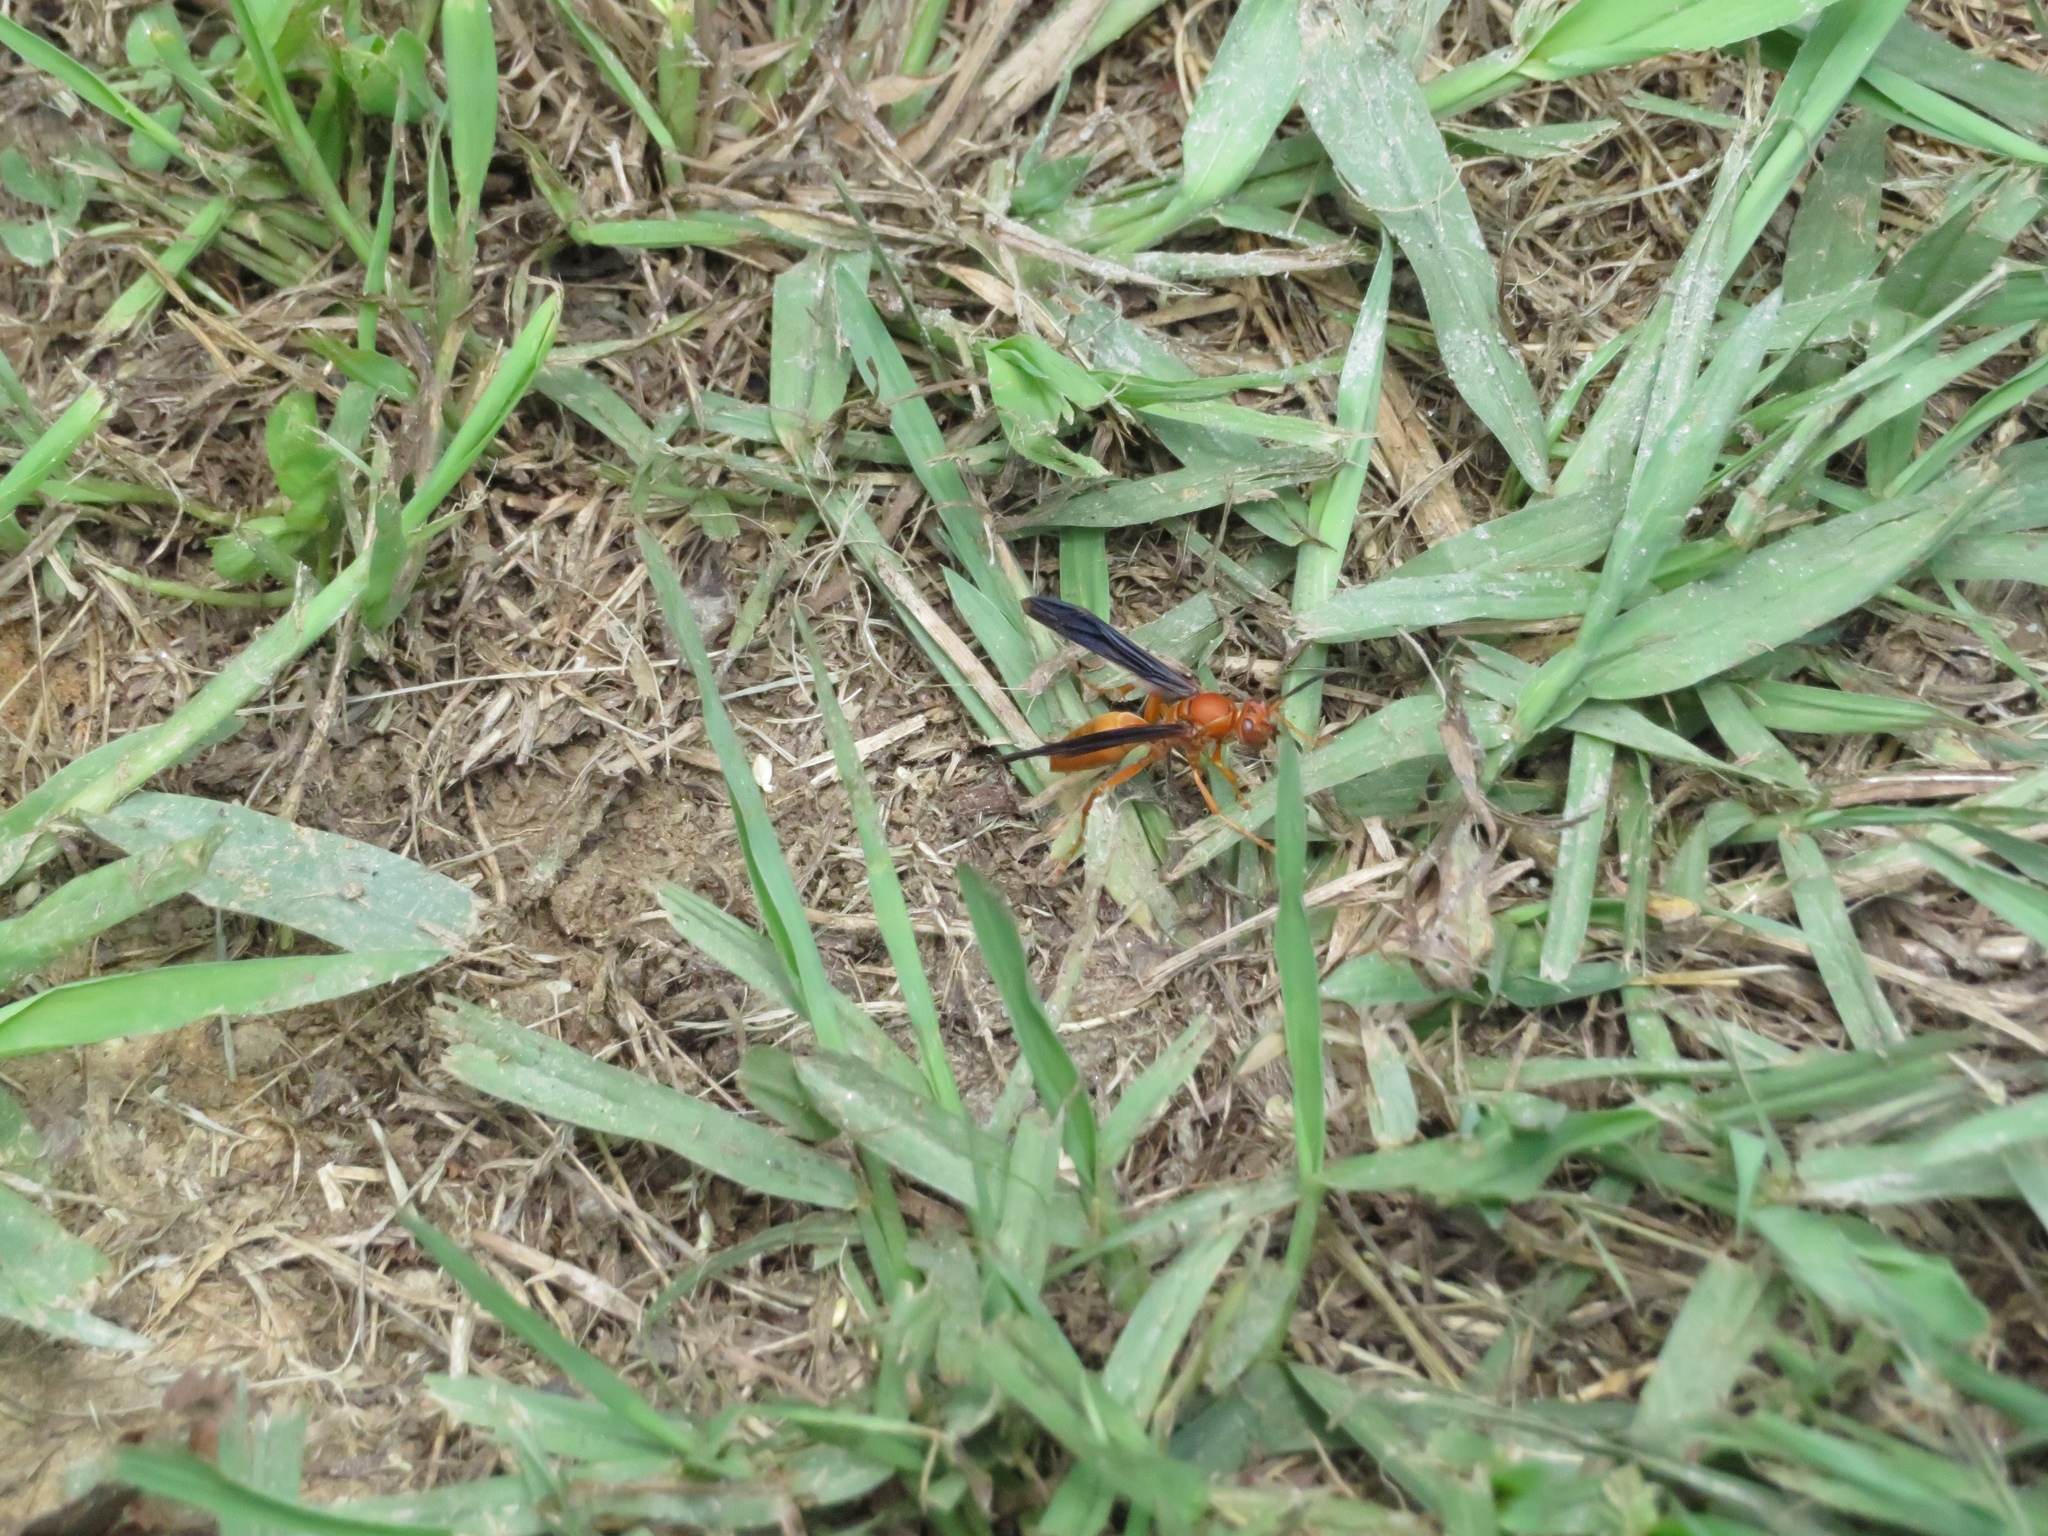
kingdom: Animalia
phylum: Arthropoda
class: Insecta
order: Hymenoptera
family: Vespidae
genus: Fuscopolistes
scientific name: Fuscopolistes
